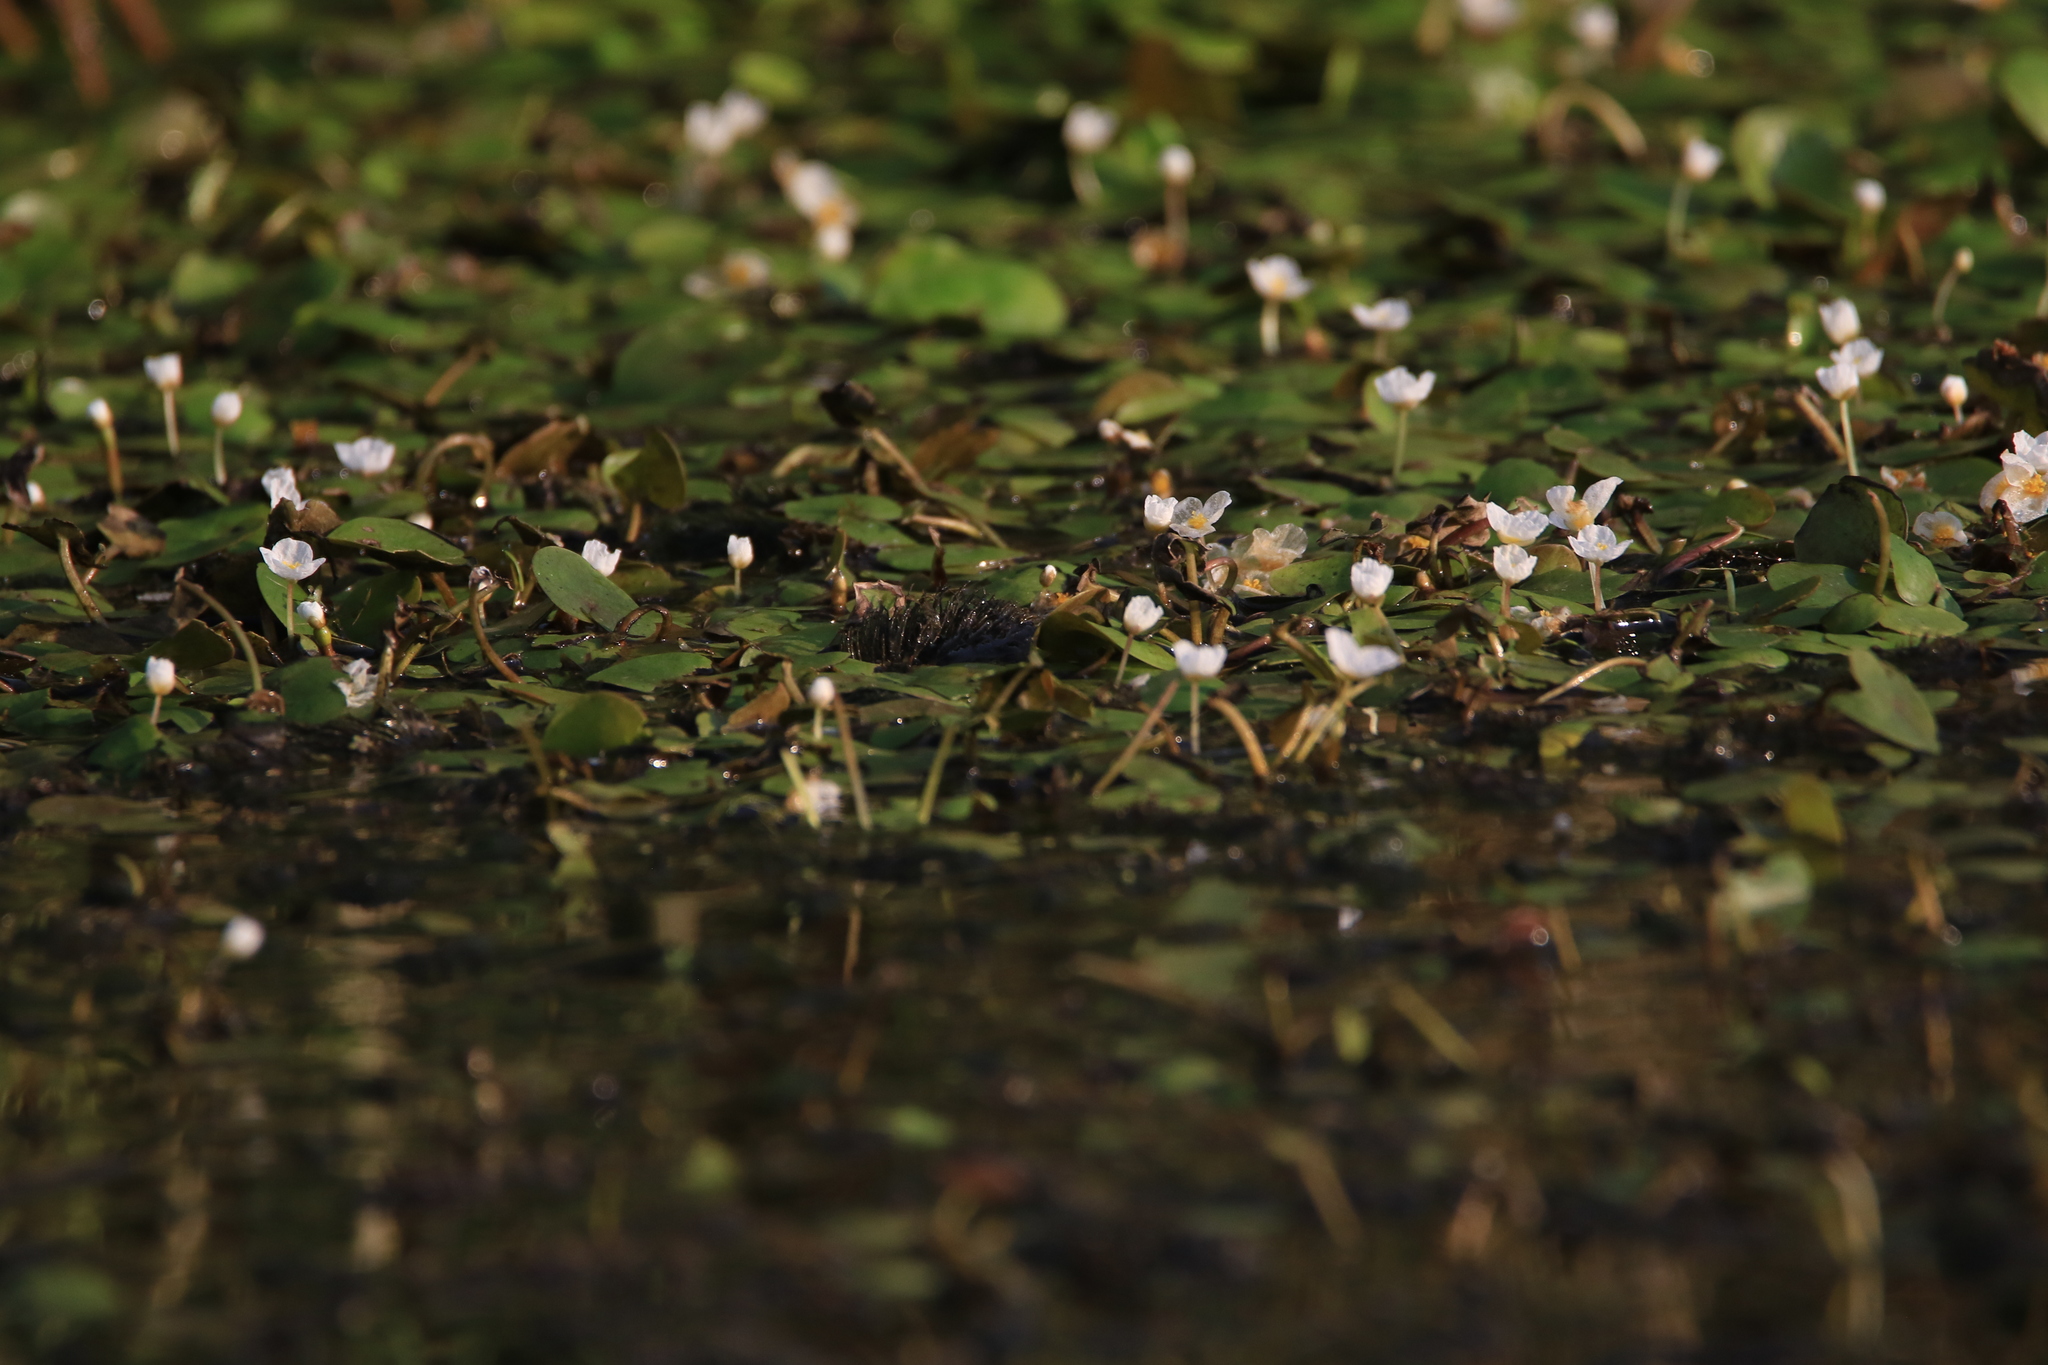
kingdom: Plantae
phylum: Tracheophyta
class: Liliopsida
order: Alismatales
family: Hydrocharitaceae
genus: Hydrocharis
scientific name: Hydrocharis morsus-ranae
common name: Frogbit
